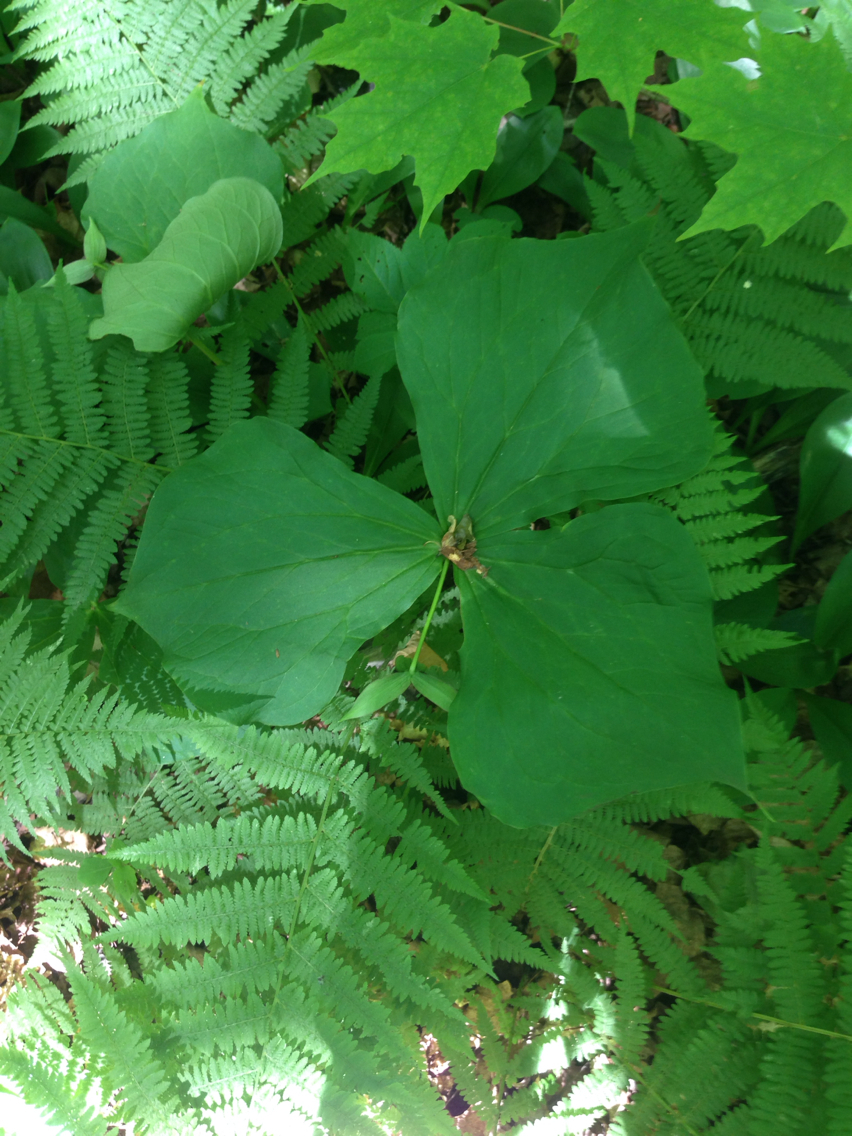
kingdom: Plantae
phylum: Tracheophyta
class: Liliopsida
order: Liliales
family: Melanthiaceae
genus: Trillium
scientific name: Trillium erectum
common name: Purple trillium
